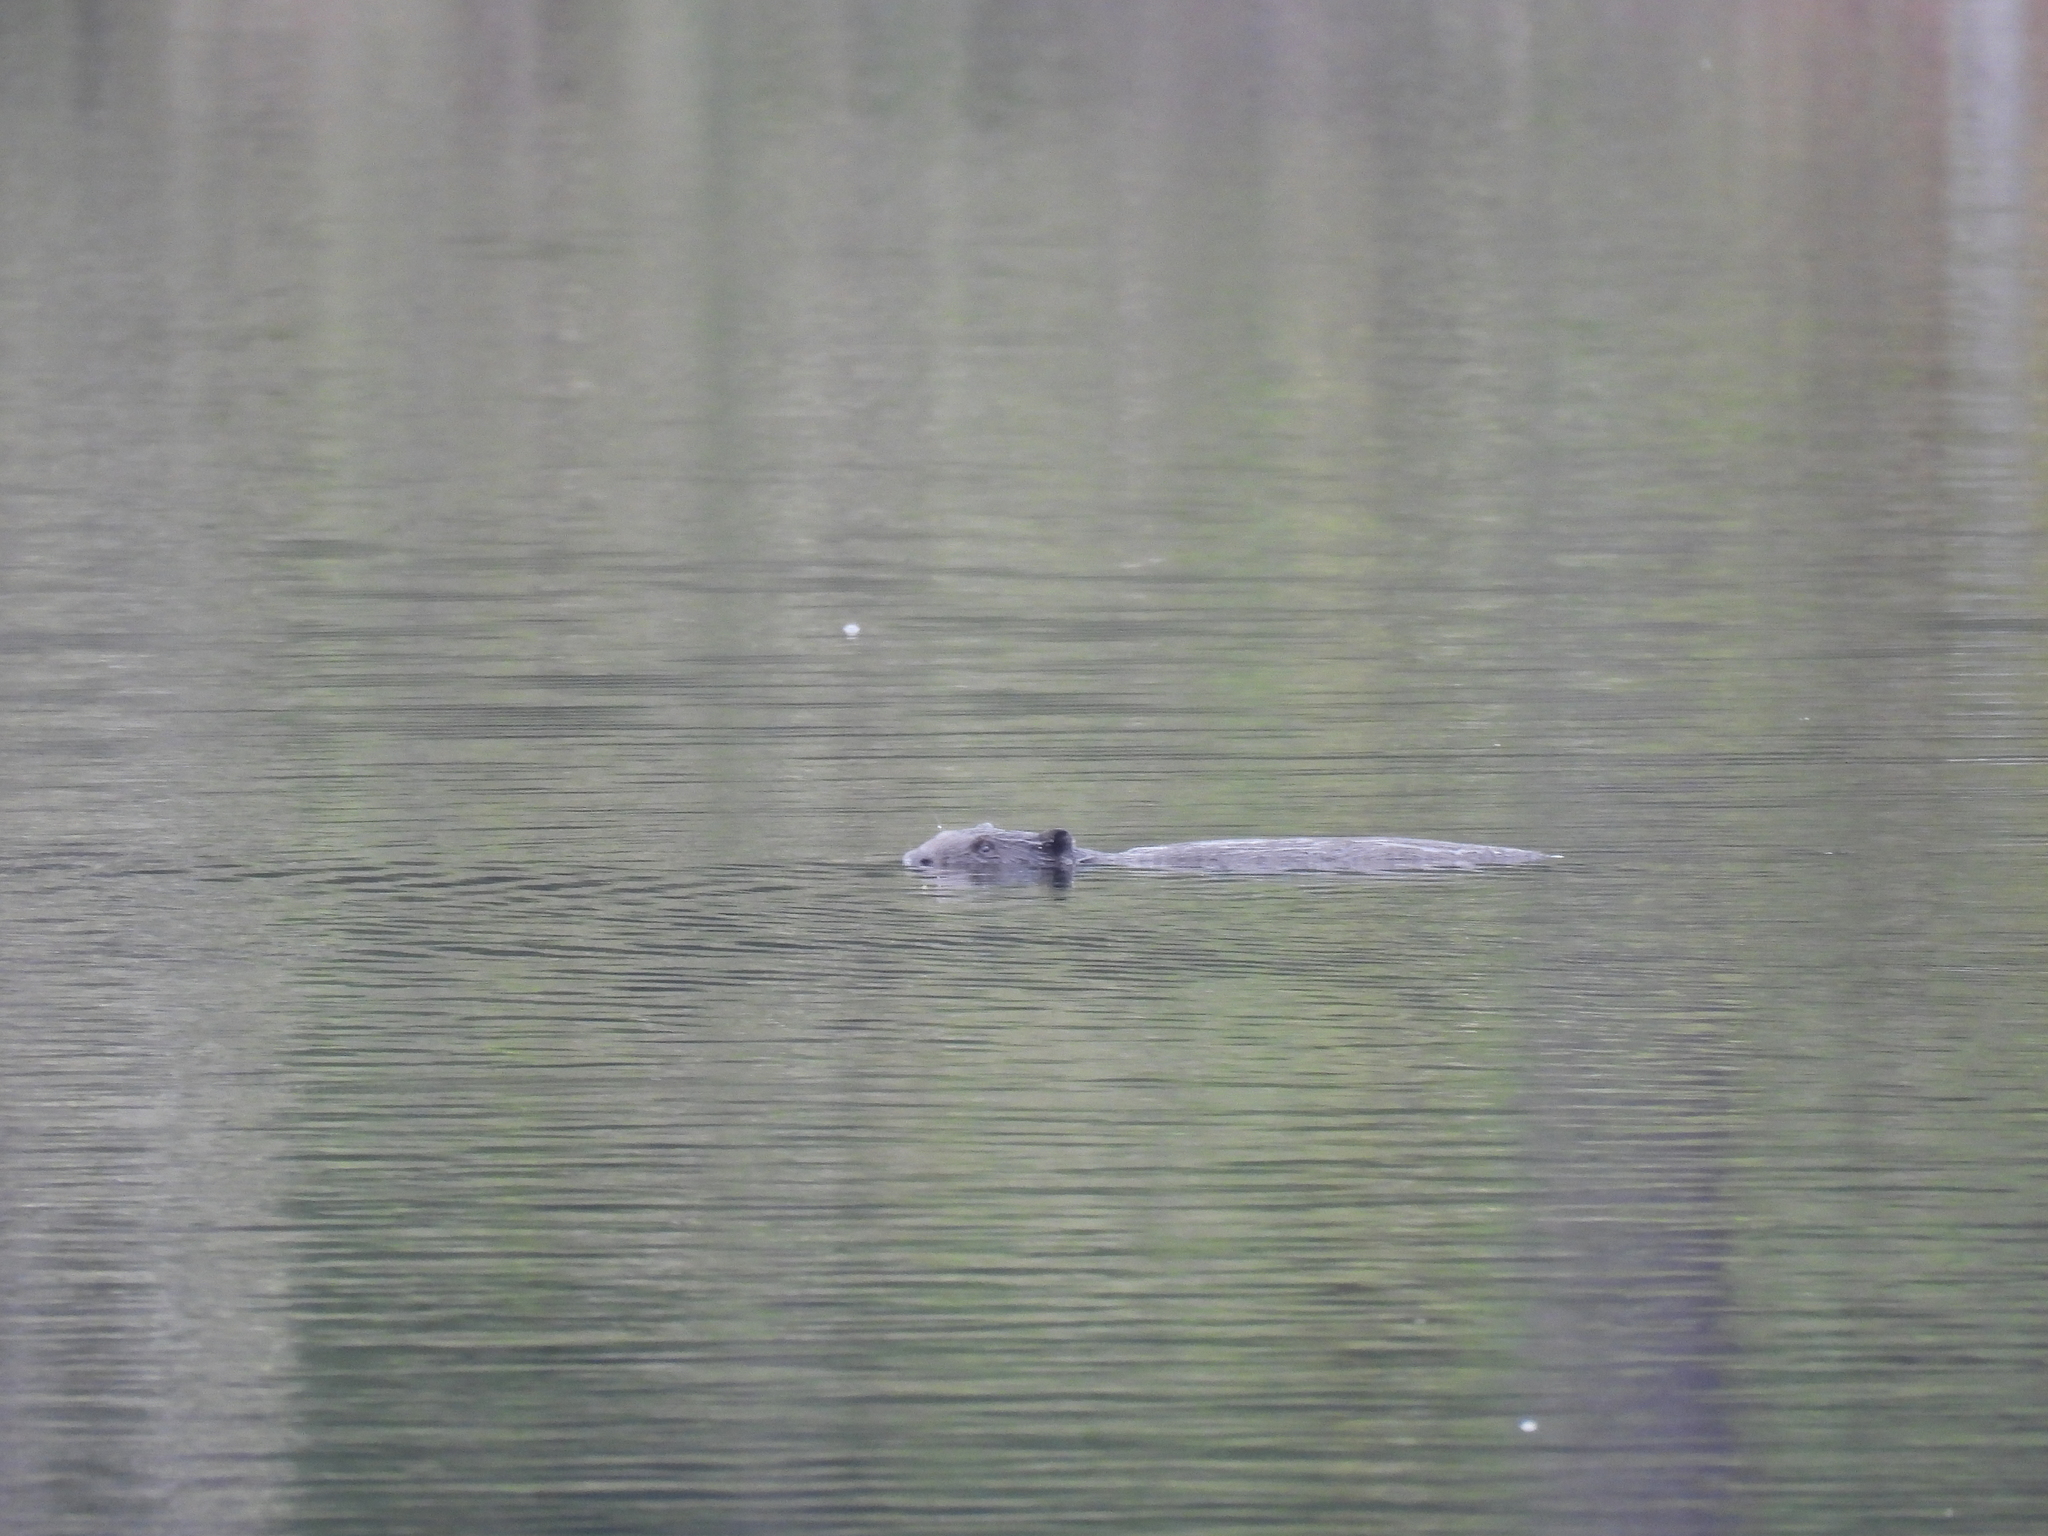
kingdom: Animalia
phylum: Chordata
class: Mammalia
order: Rodentia
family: Castoridae
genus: Castor
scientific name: Castor canadensis
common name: American beaver
